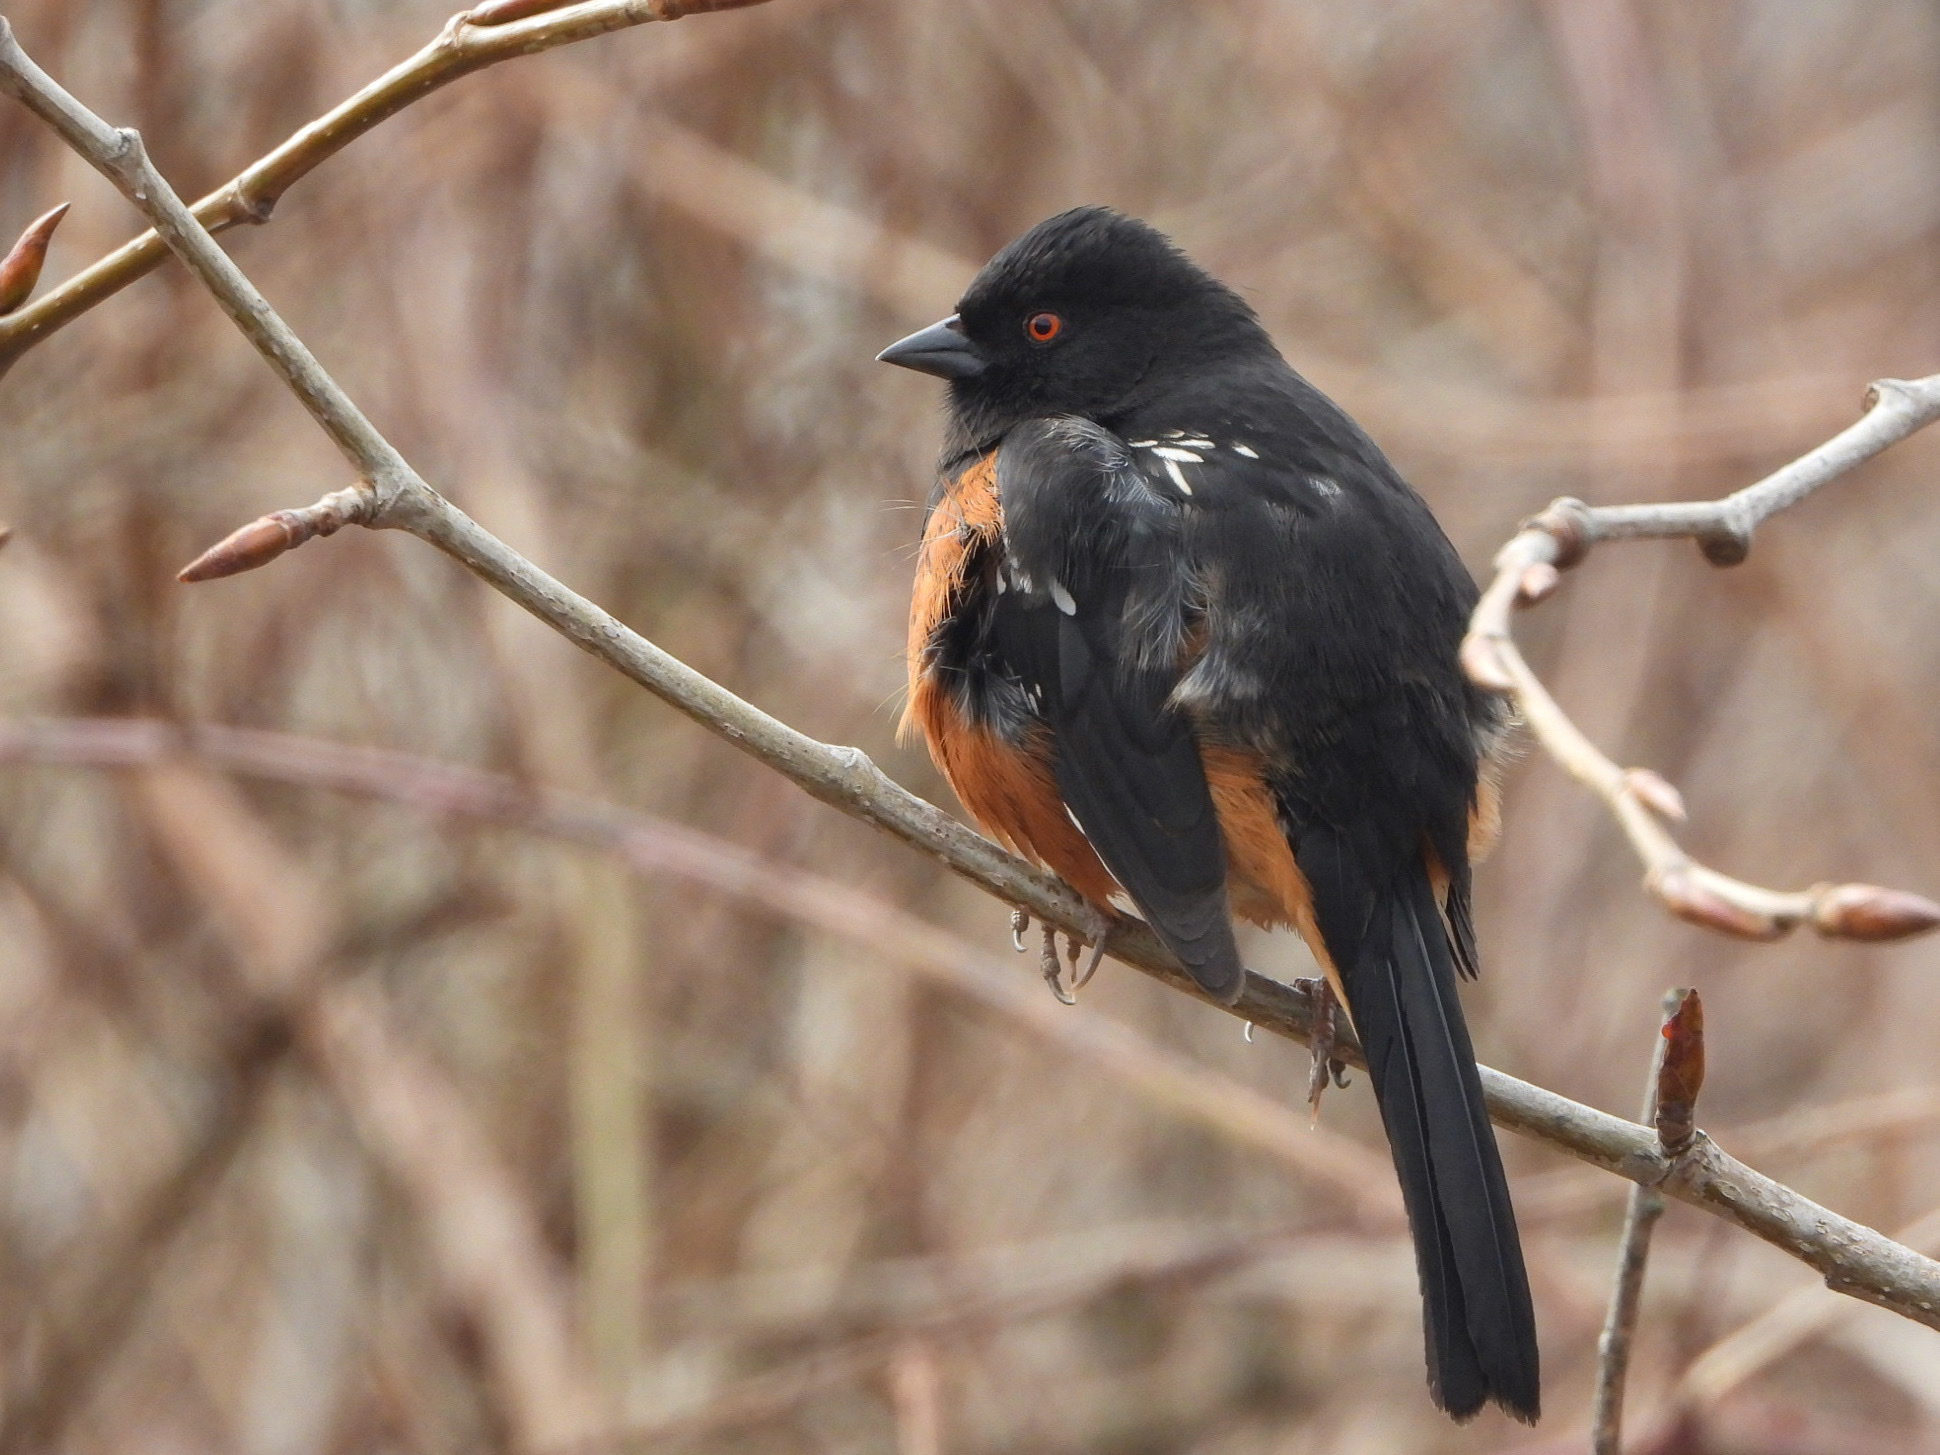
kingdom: Animalia
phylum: Chordata
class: Aves
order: Passeriformes
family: Passerellidae
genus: Pipilo
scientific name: Pipilo maculatus
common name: Spotted towhee
